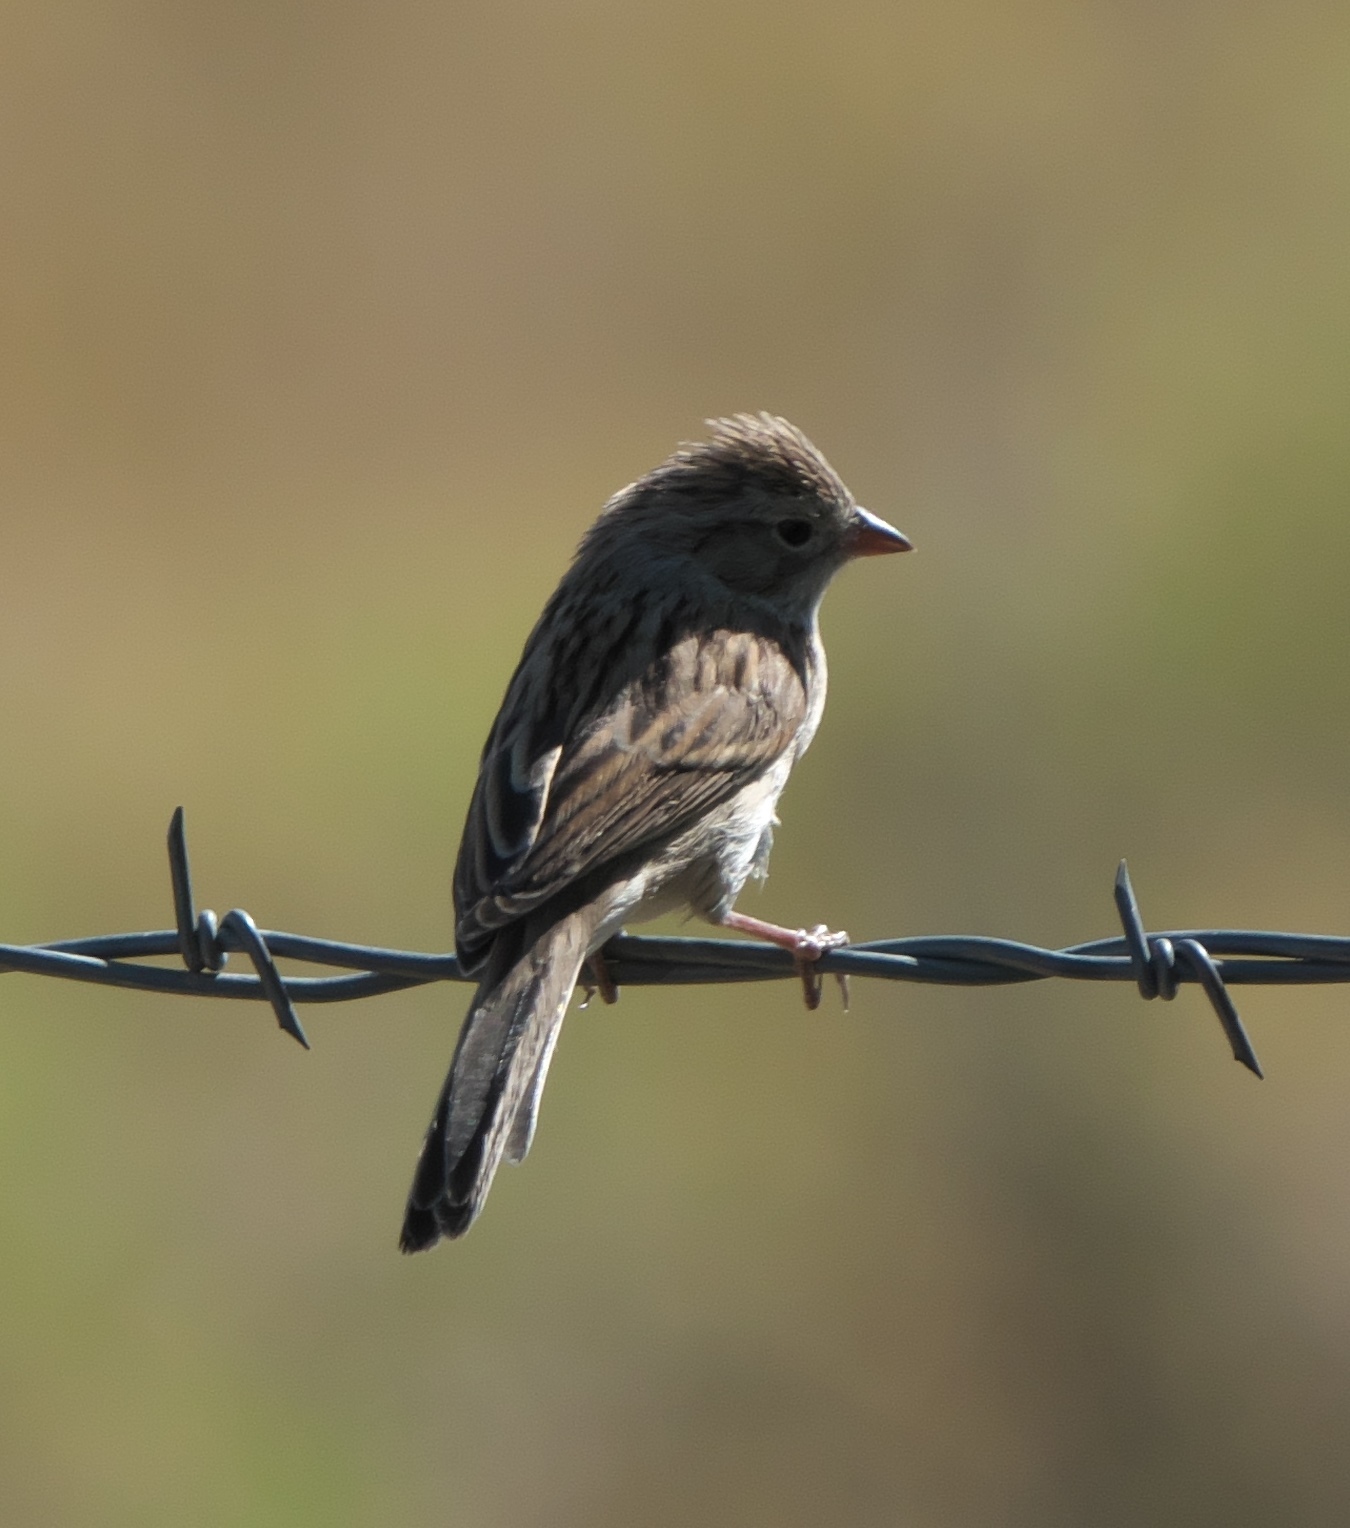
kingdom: Animalia
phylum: Chordata
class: Aves
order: Passeriformes
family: Passerellidae
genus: Spizella
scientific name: Spizella breweri
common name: Brewer's sparrow
